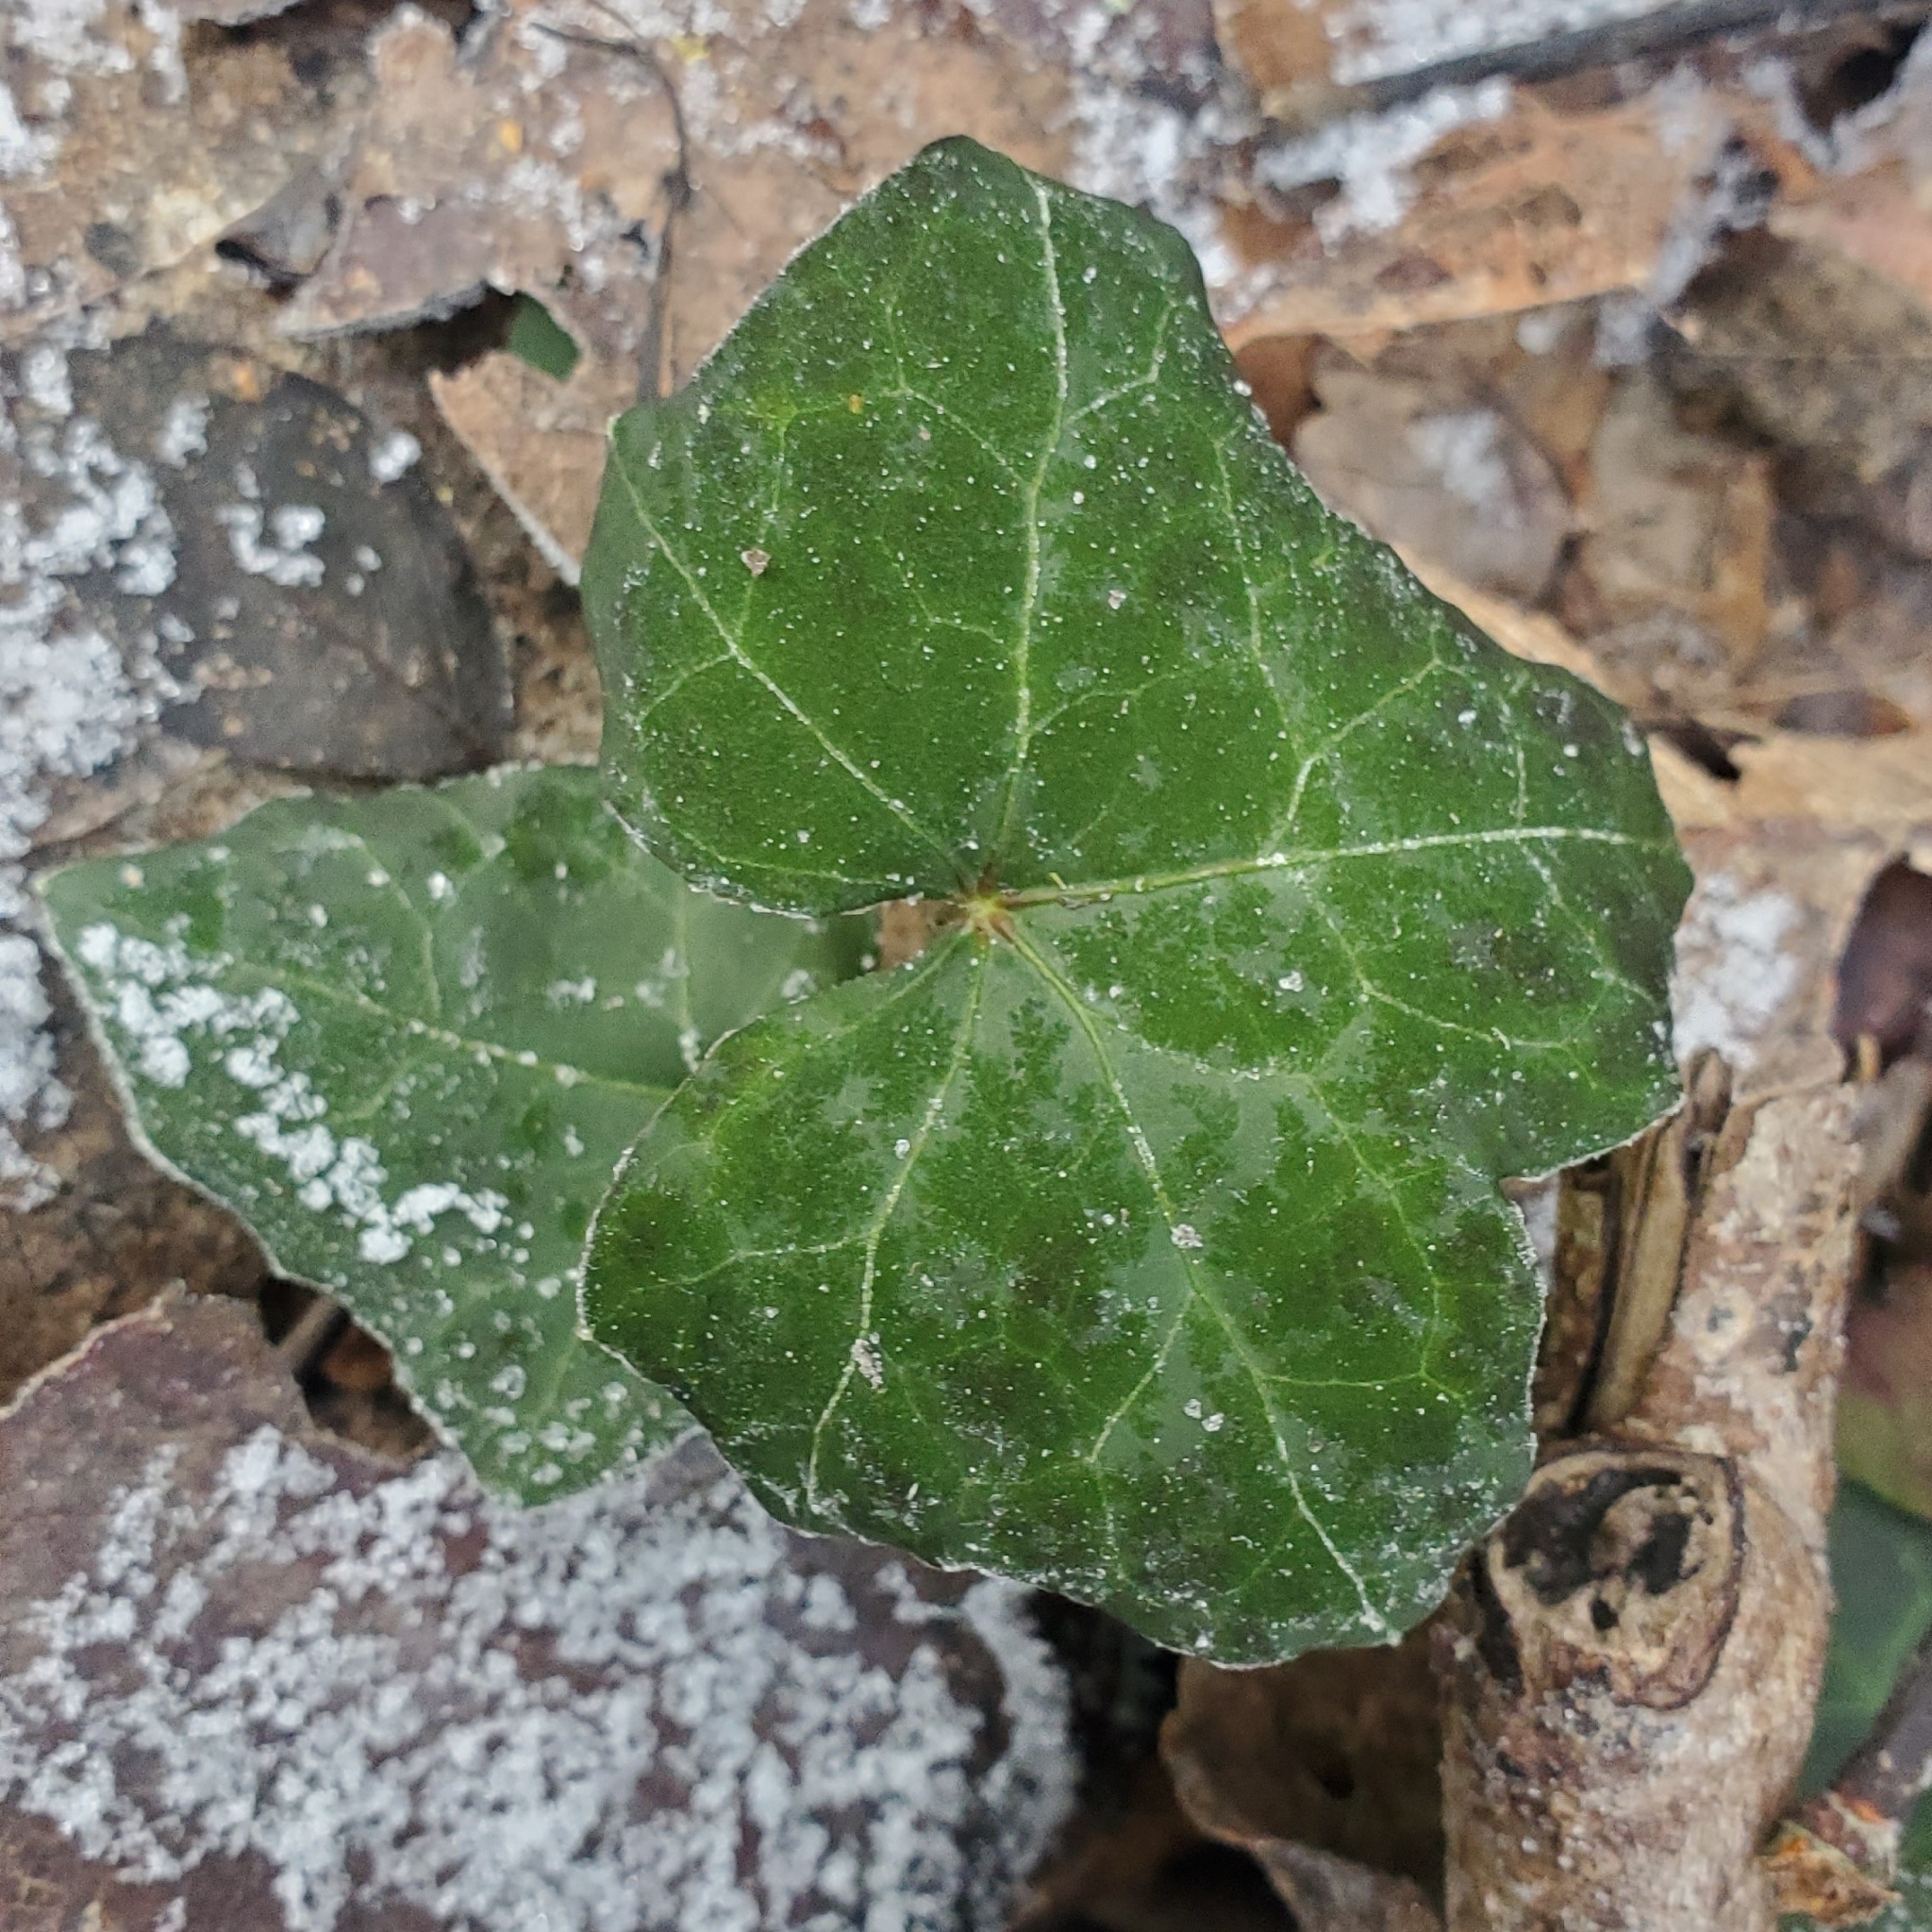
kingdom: Plantae
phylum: Tracheophyta
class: Magnoliopsida
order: Apiales
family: Araliaceae
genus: Hedera
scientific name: Hedera hibernica
